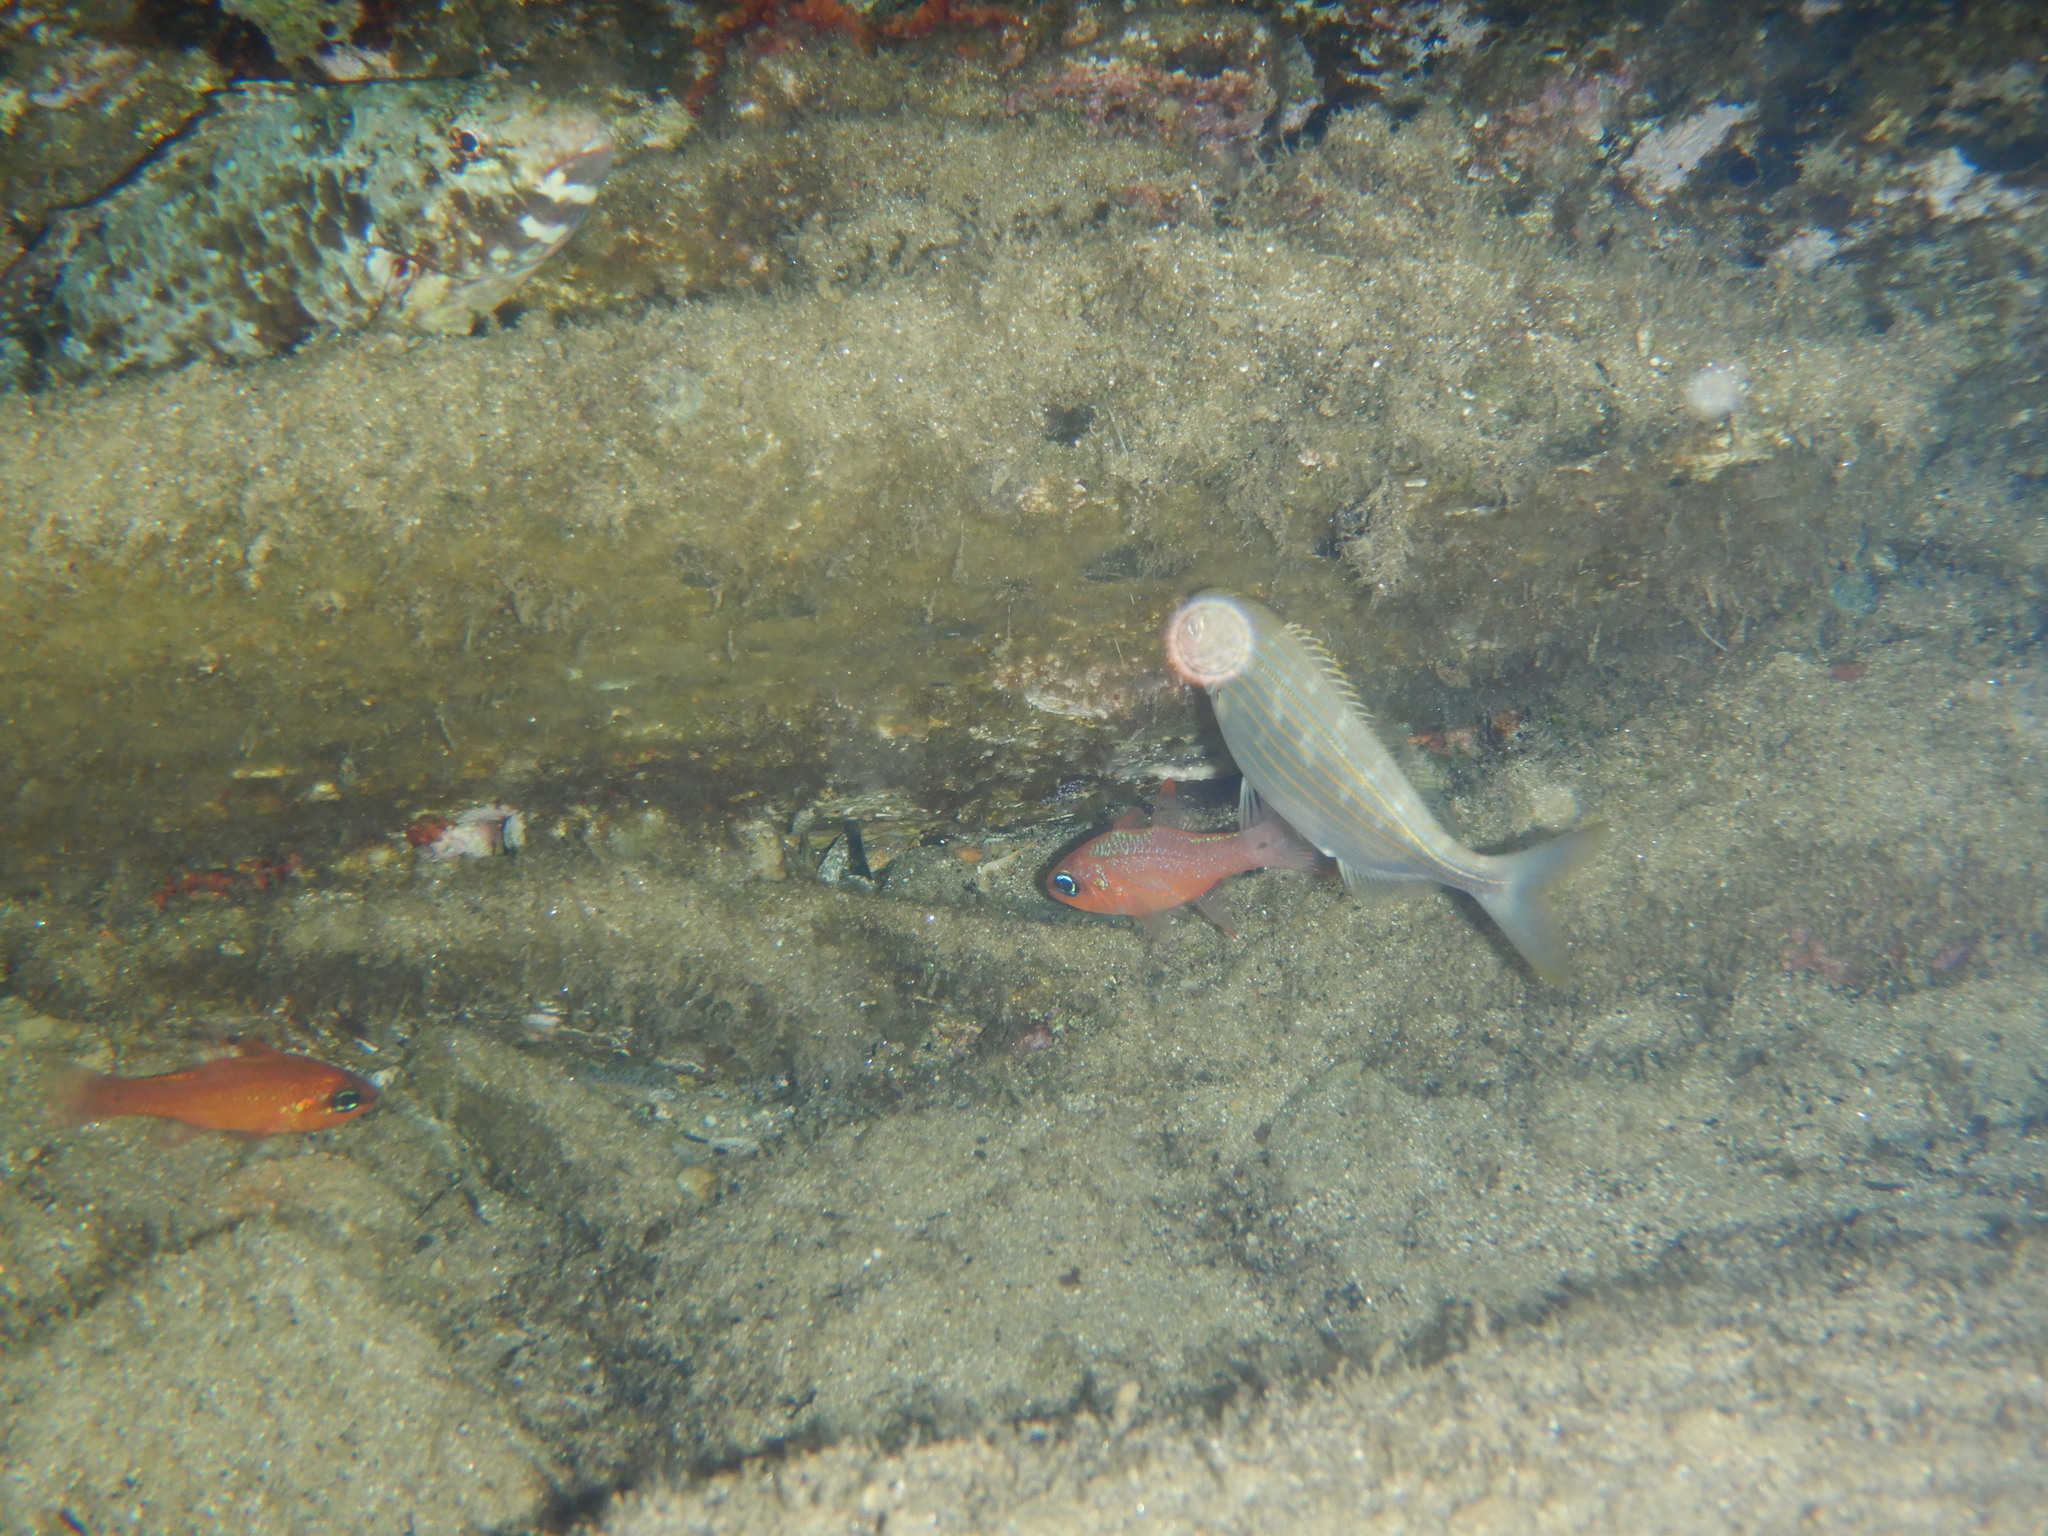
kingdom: Animalia
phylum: Chordata
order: Perciformes
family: Apogonidae
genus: Apogon
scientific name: Apogon imberbis
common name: Cardinal fish
